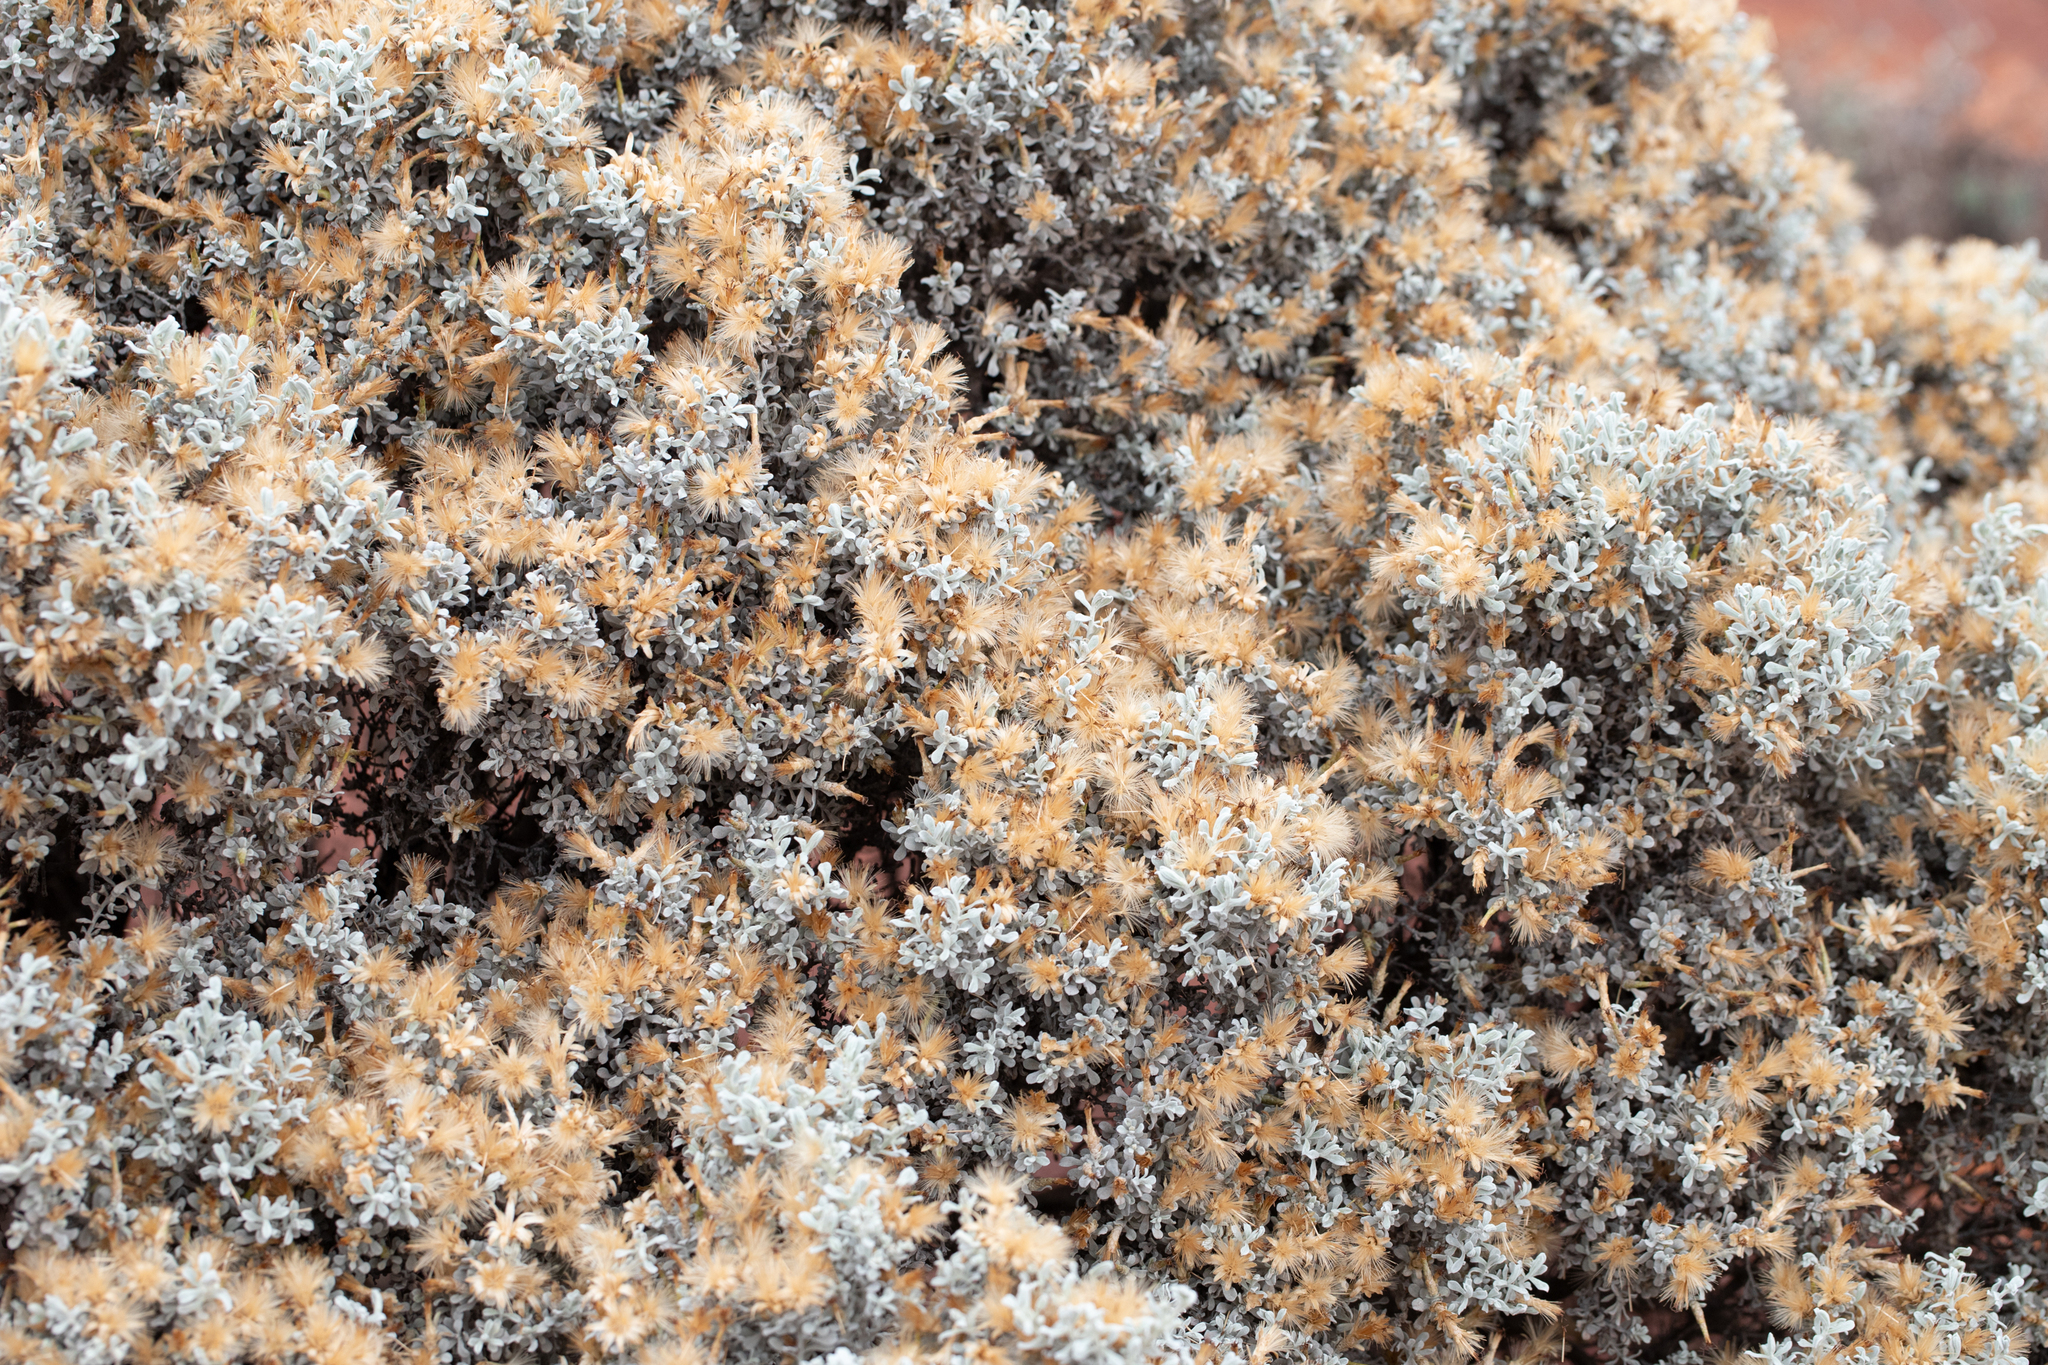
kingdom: Plantae
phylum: Tracheophyta
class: Magnoliopsida
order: Asterales
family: Asteraceae
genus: Cratystylis
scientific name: Cratystylis conocephala
